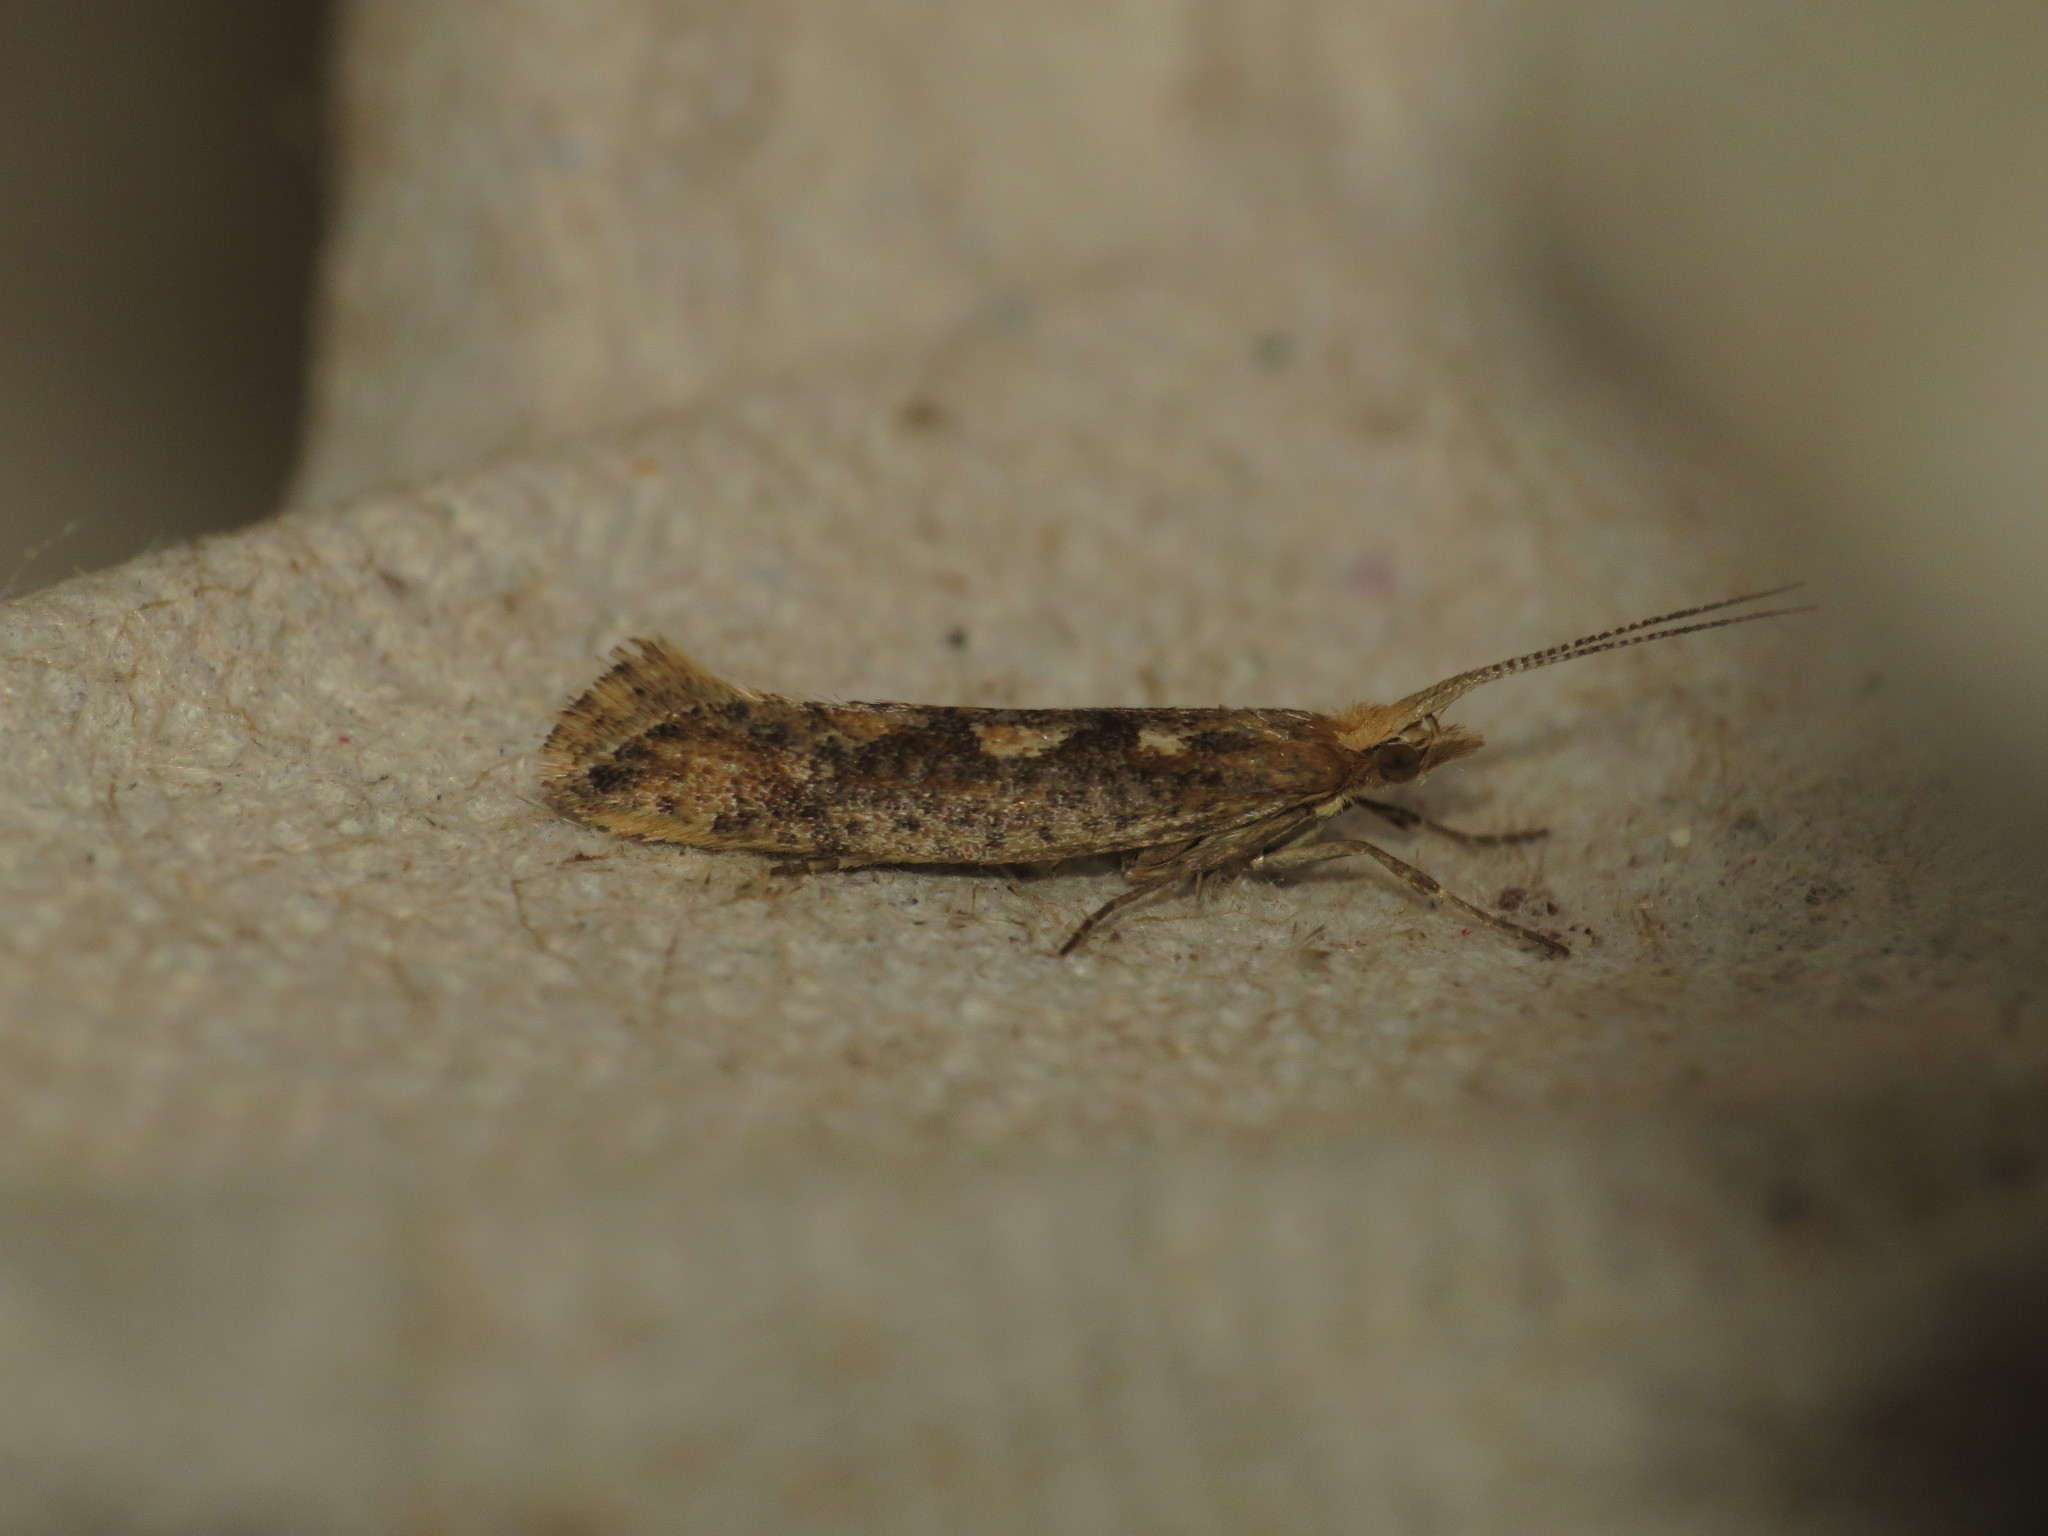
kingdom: Animalia
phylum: Arthropoda
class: Insecta
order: Lepidoptera
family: Plutellidae
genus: Plutella
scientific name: Plutella xylostella
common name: Diamond-back moth
